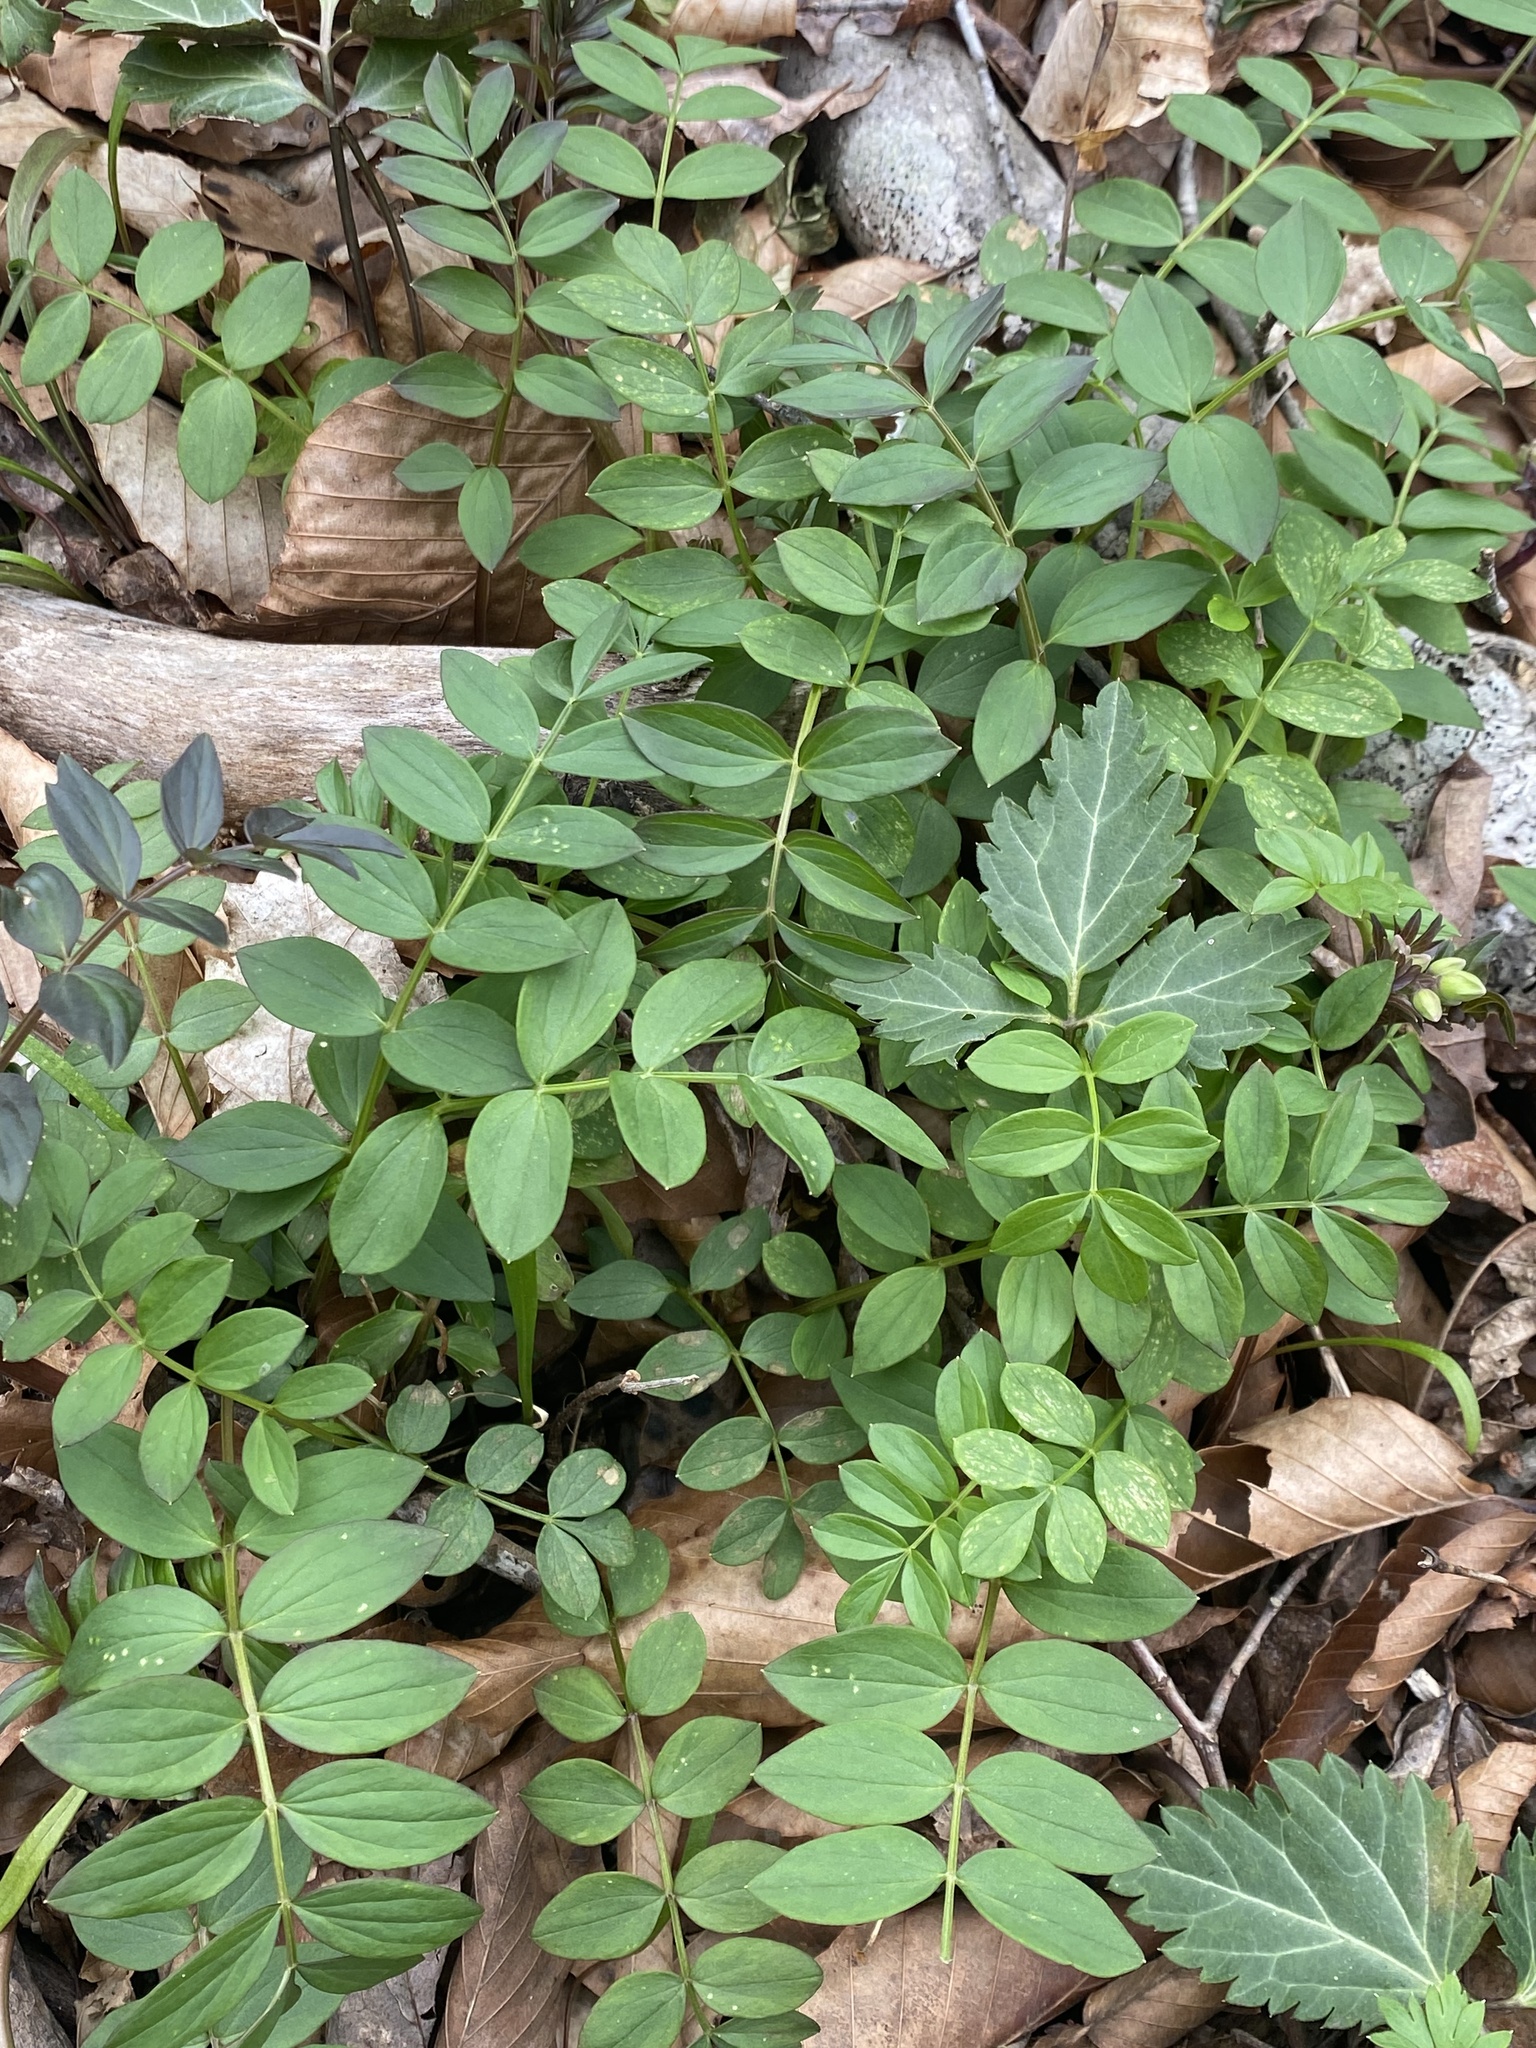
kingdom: Plantae
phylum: Tracheophyta
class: Magnoliopsida
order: Ericales
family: Polemoniaceae
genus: Polemonium
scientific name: Polemonium reptans
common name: Creeping jacob's-ladder
